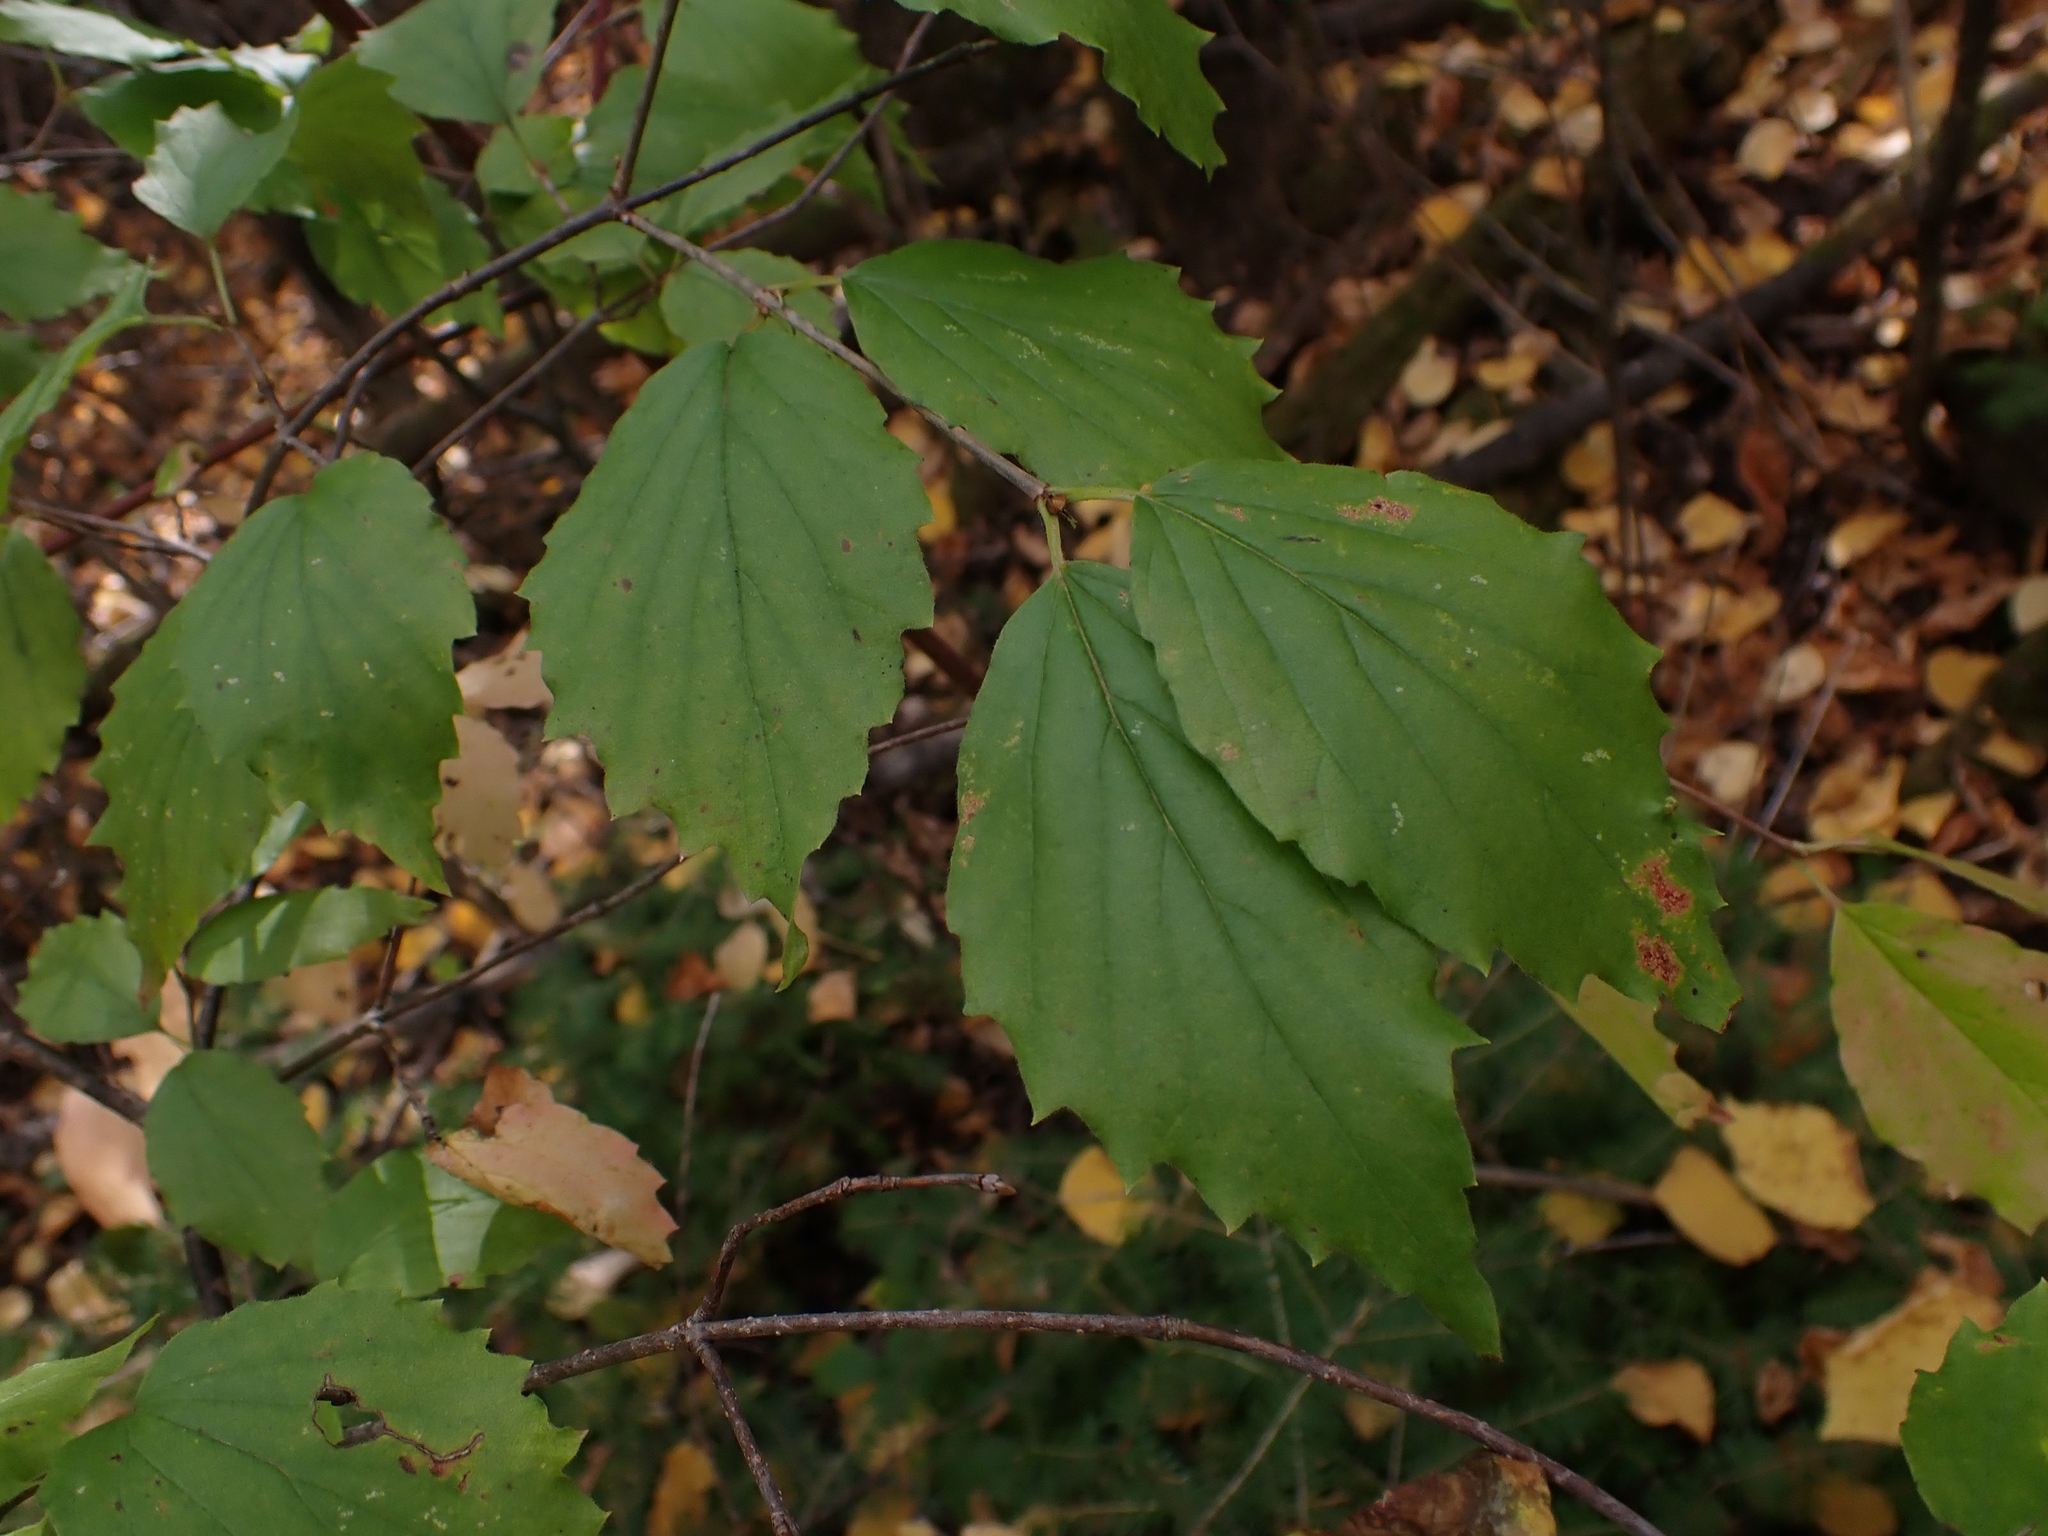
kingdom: Plantae
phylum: Tracheophyta
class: Magnoliopsida
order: Dipsacales
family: Viburnaceae
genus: Viburnum
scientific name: Viburnum rafinesqueanum
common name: Downy arrow-wood
